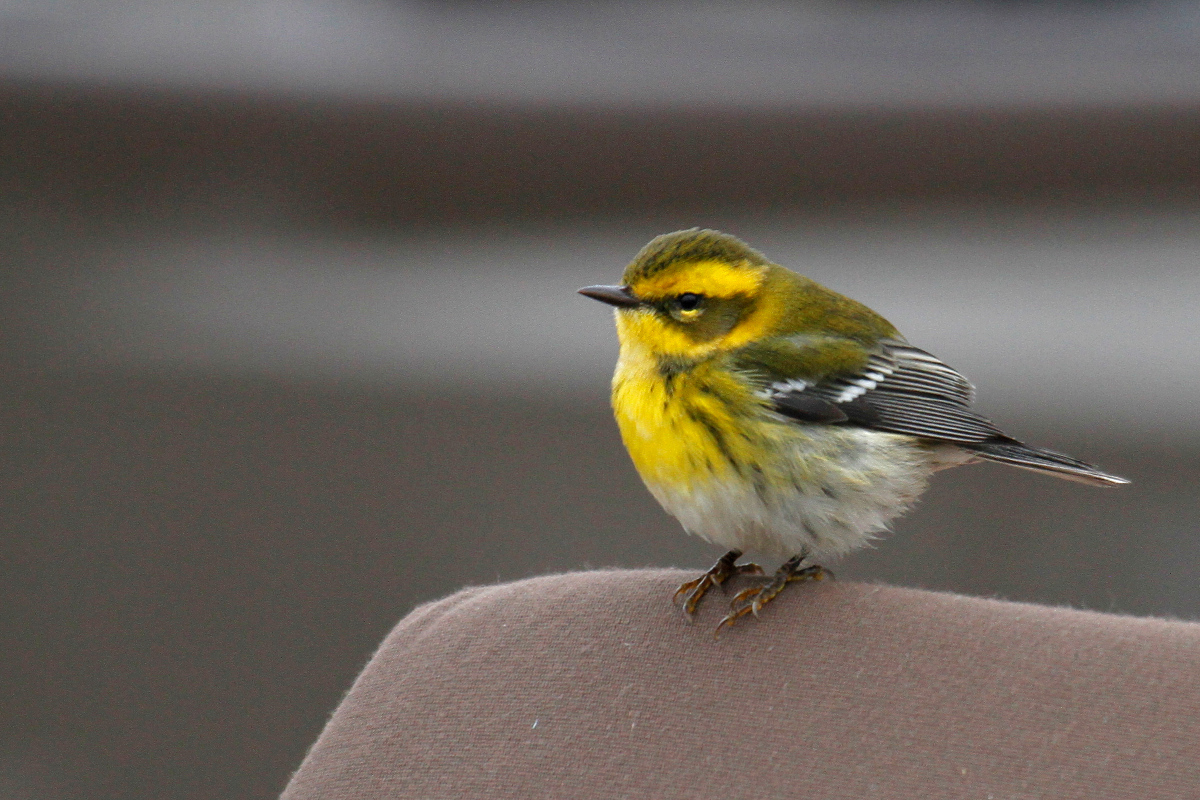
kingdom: Animalia
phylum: Chordata
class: Aves
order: Passeriformes
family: Parulidae
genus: Setophaga
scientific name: Setophaga townsendi
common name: Townsend's warbler
